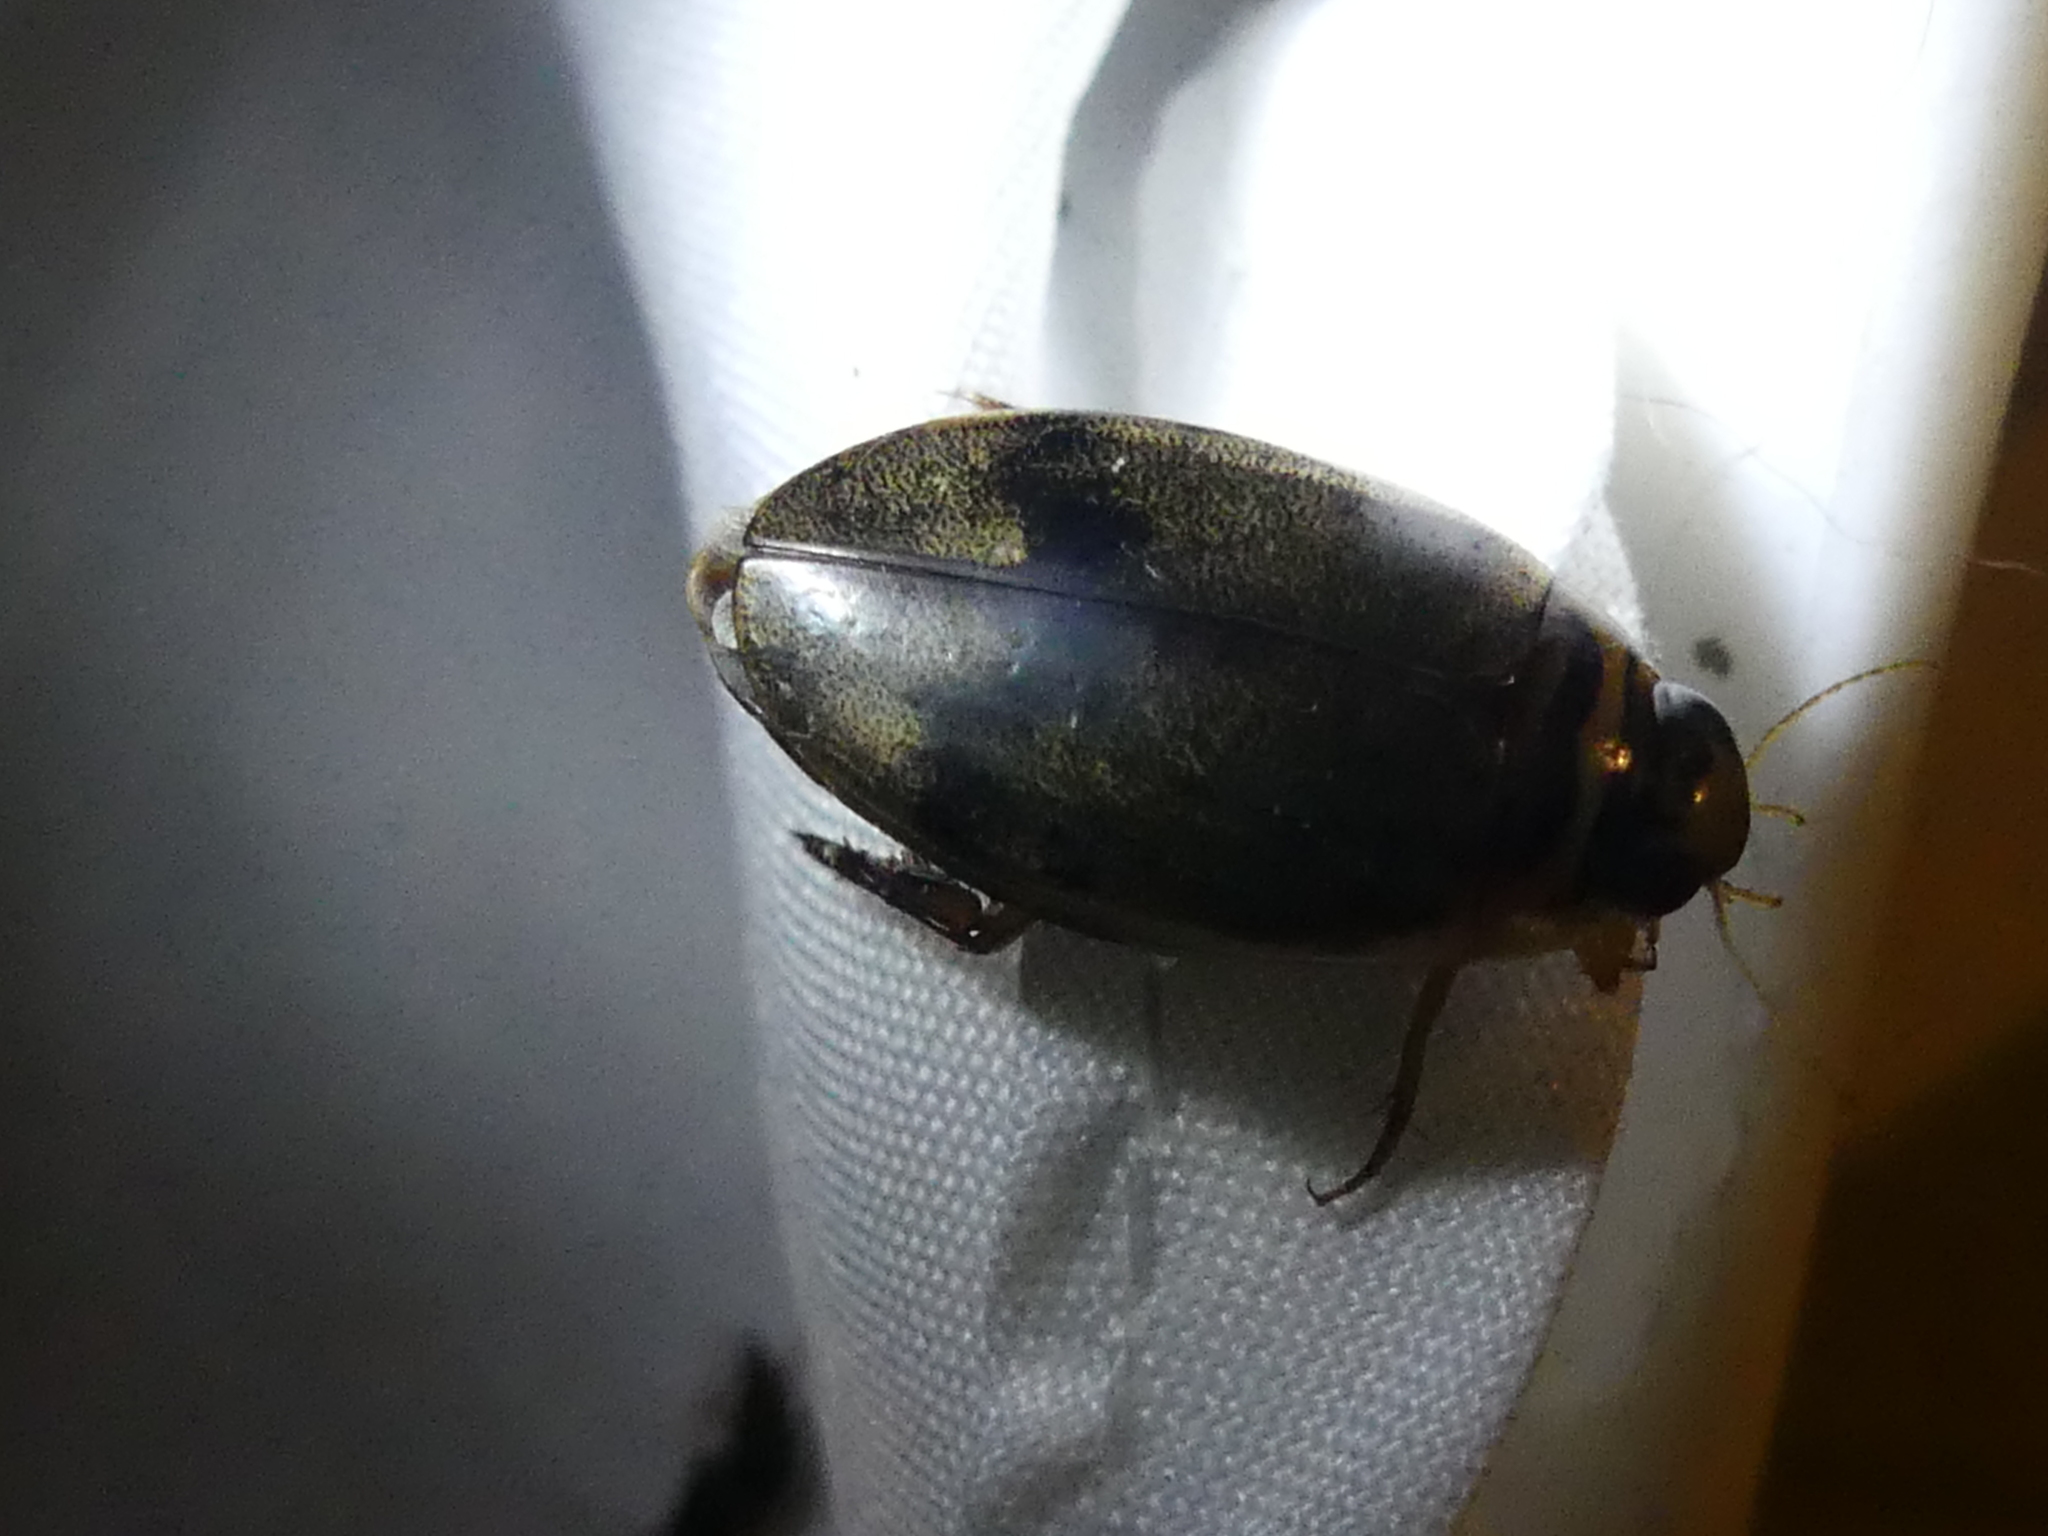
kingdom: Animalia
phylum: Arthropoda
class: Insecta
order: Coleoptera
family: Dytiscidae
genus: Thermonectus
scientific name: Thermonectus nigrofasciatus
